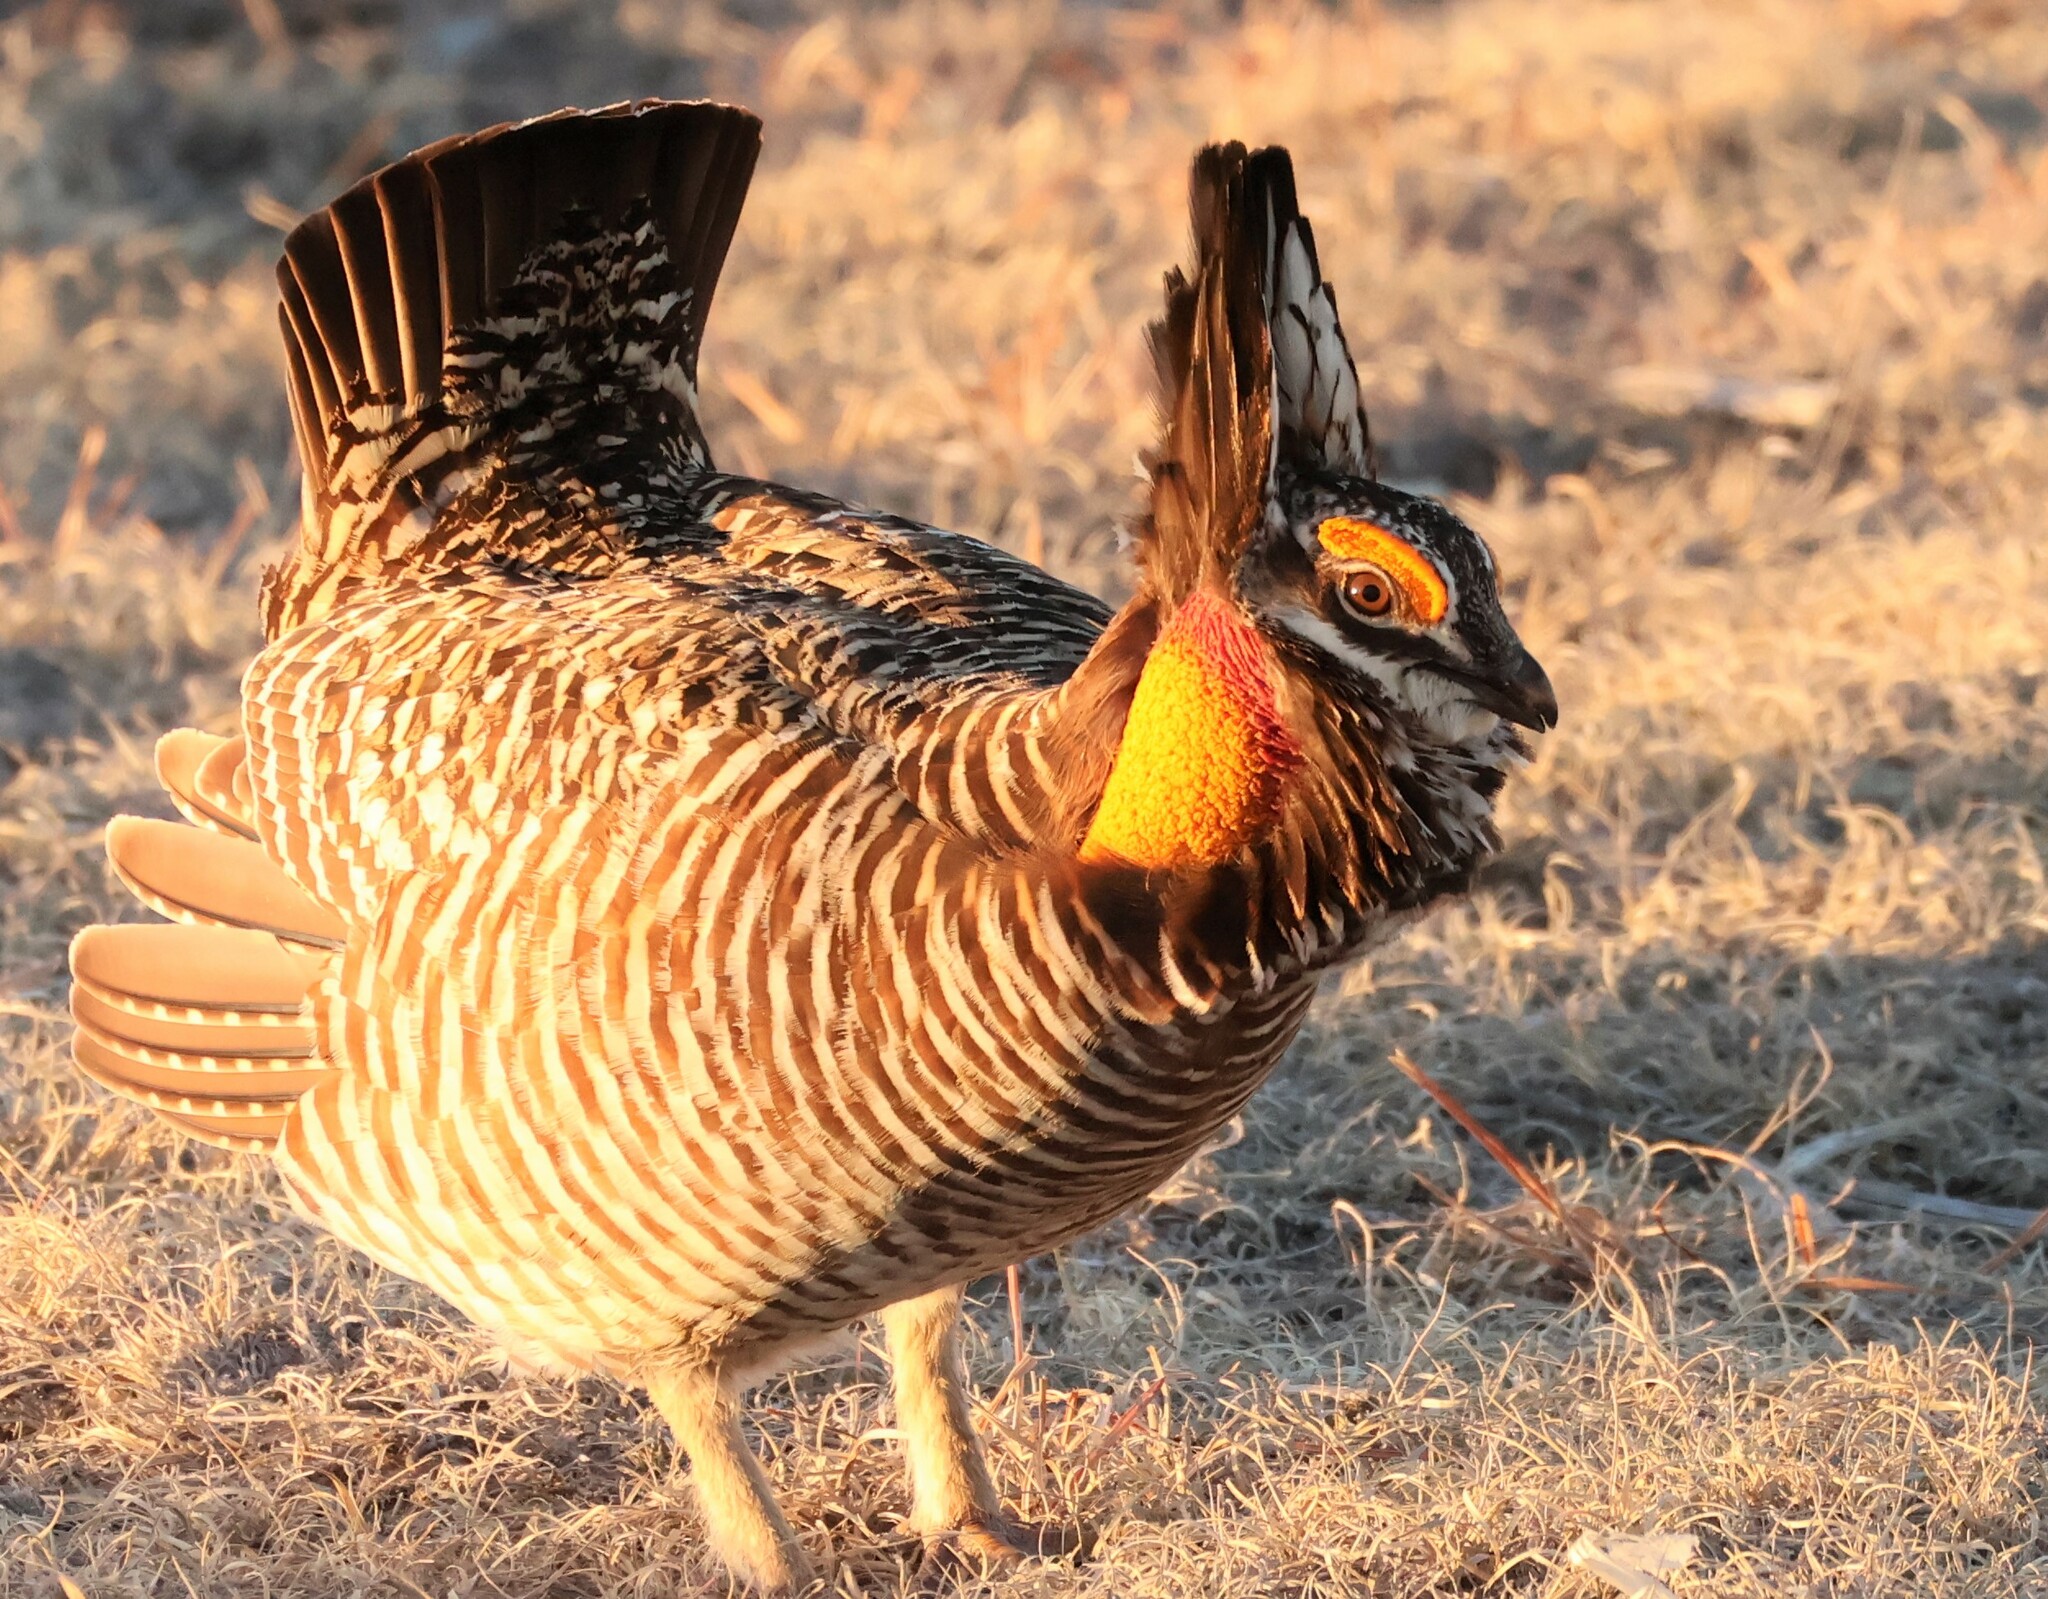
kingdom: Animalia
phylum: Chordata
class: Aves
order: Galliformes
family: Phasianidae
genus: Tympanuchus
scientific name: Tympanuchus cupido
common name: Greater prairie chicken
